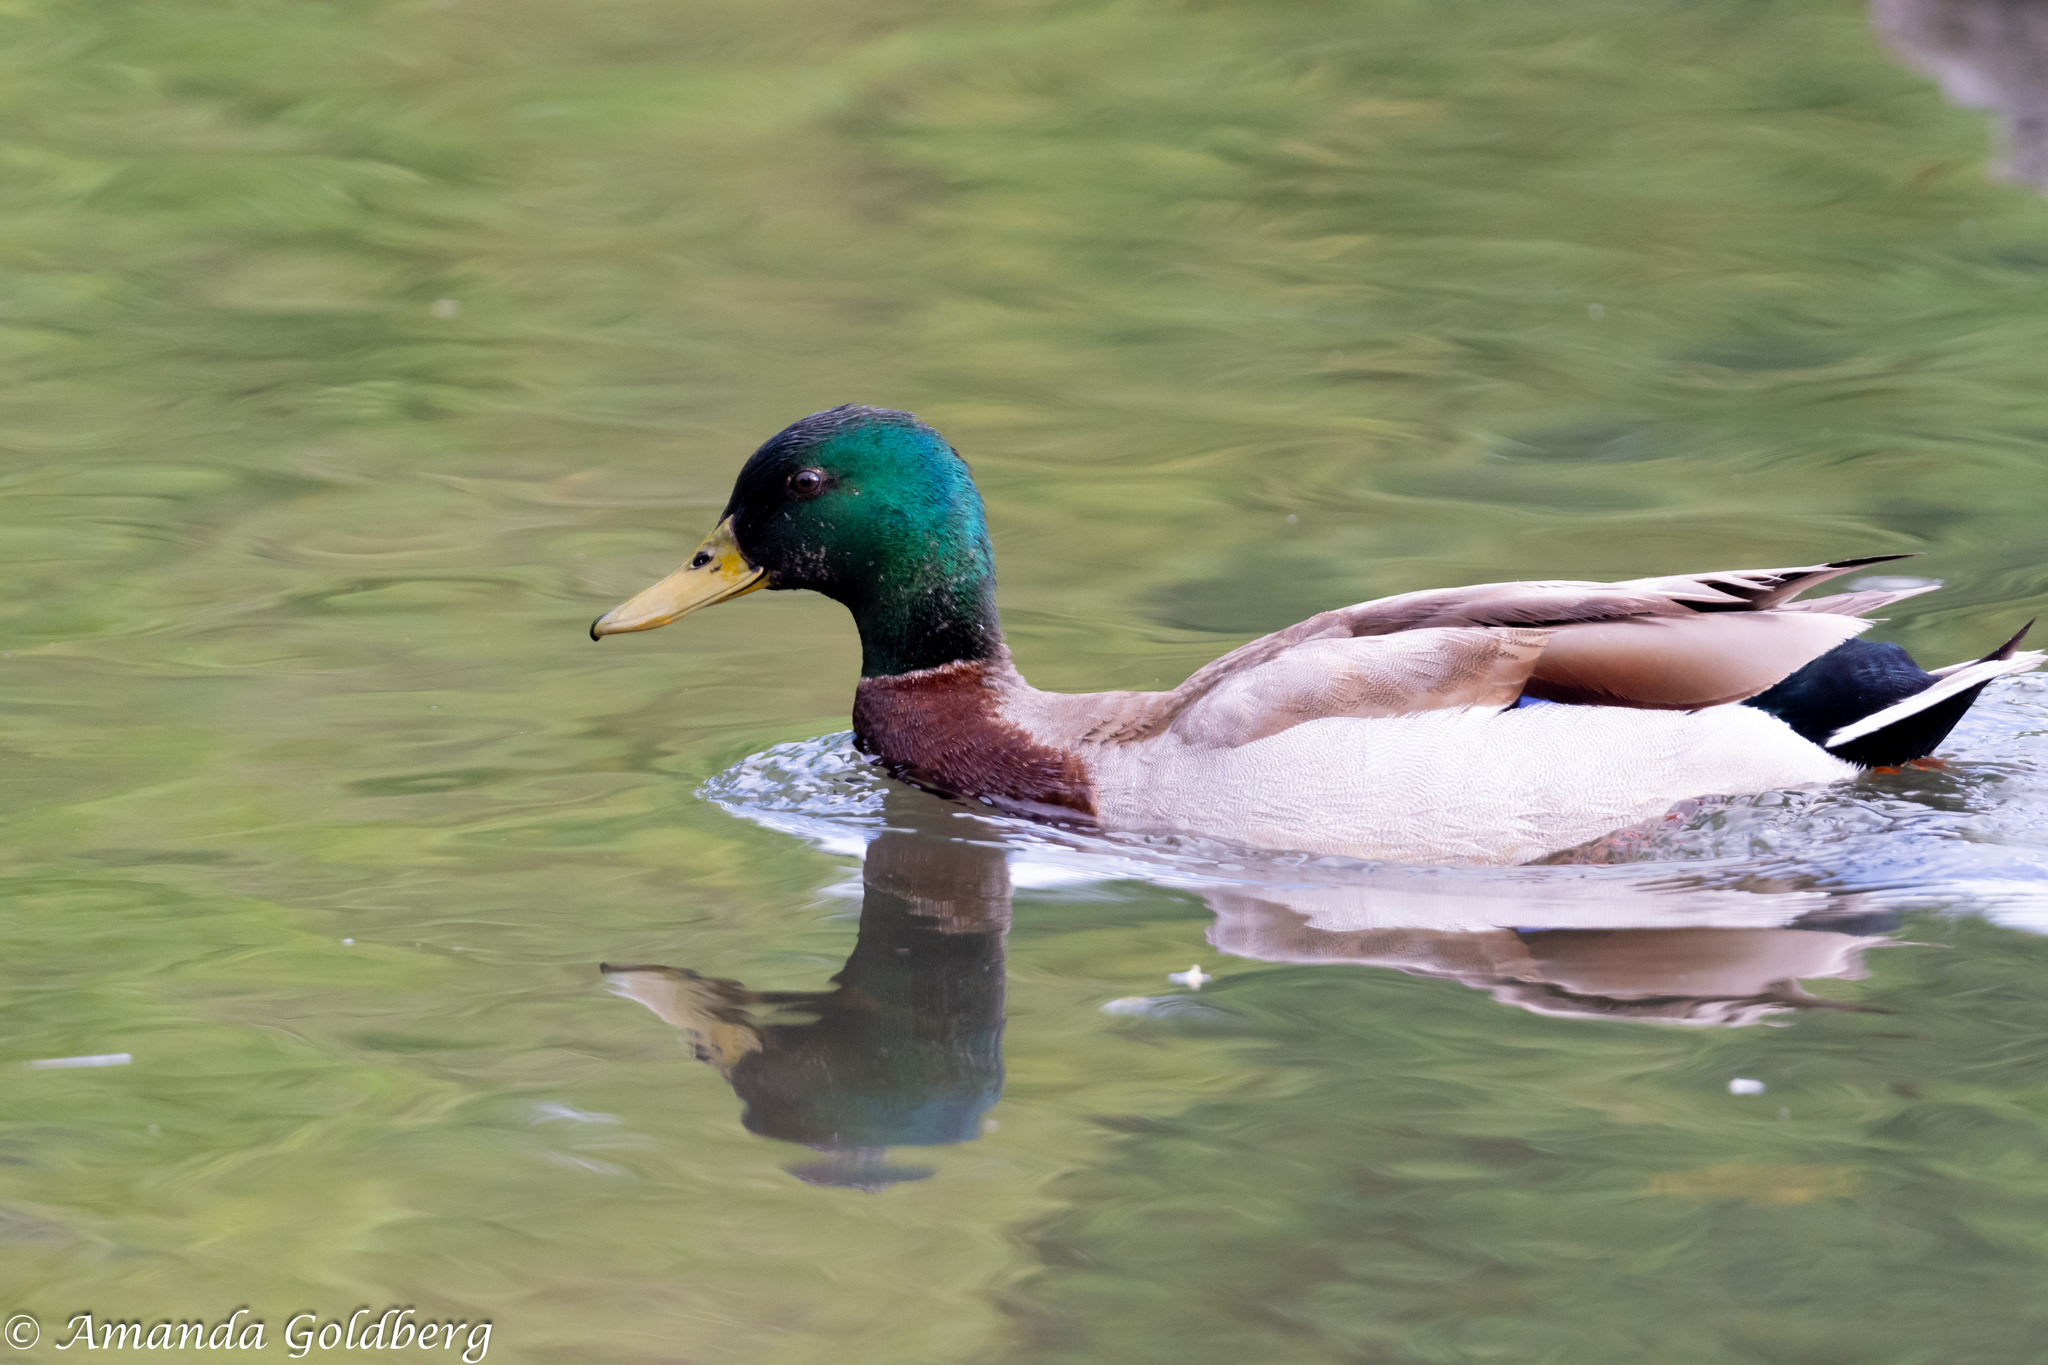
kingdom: Animalia
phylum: Chordata
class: Aves
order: Anseriformes
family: Anatidae
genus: Anas
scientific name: Anas platyrhynchos
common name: Mallard
